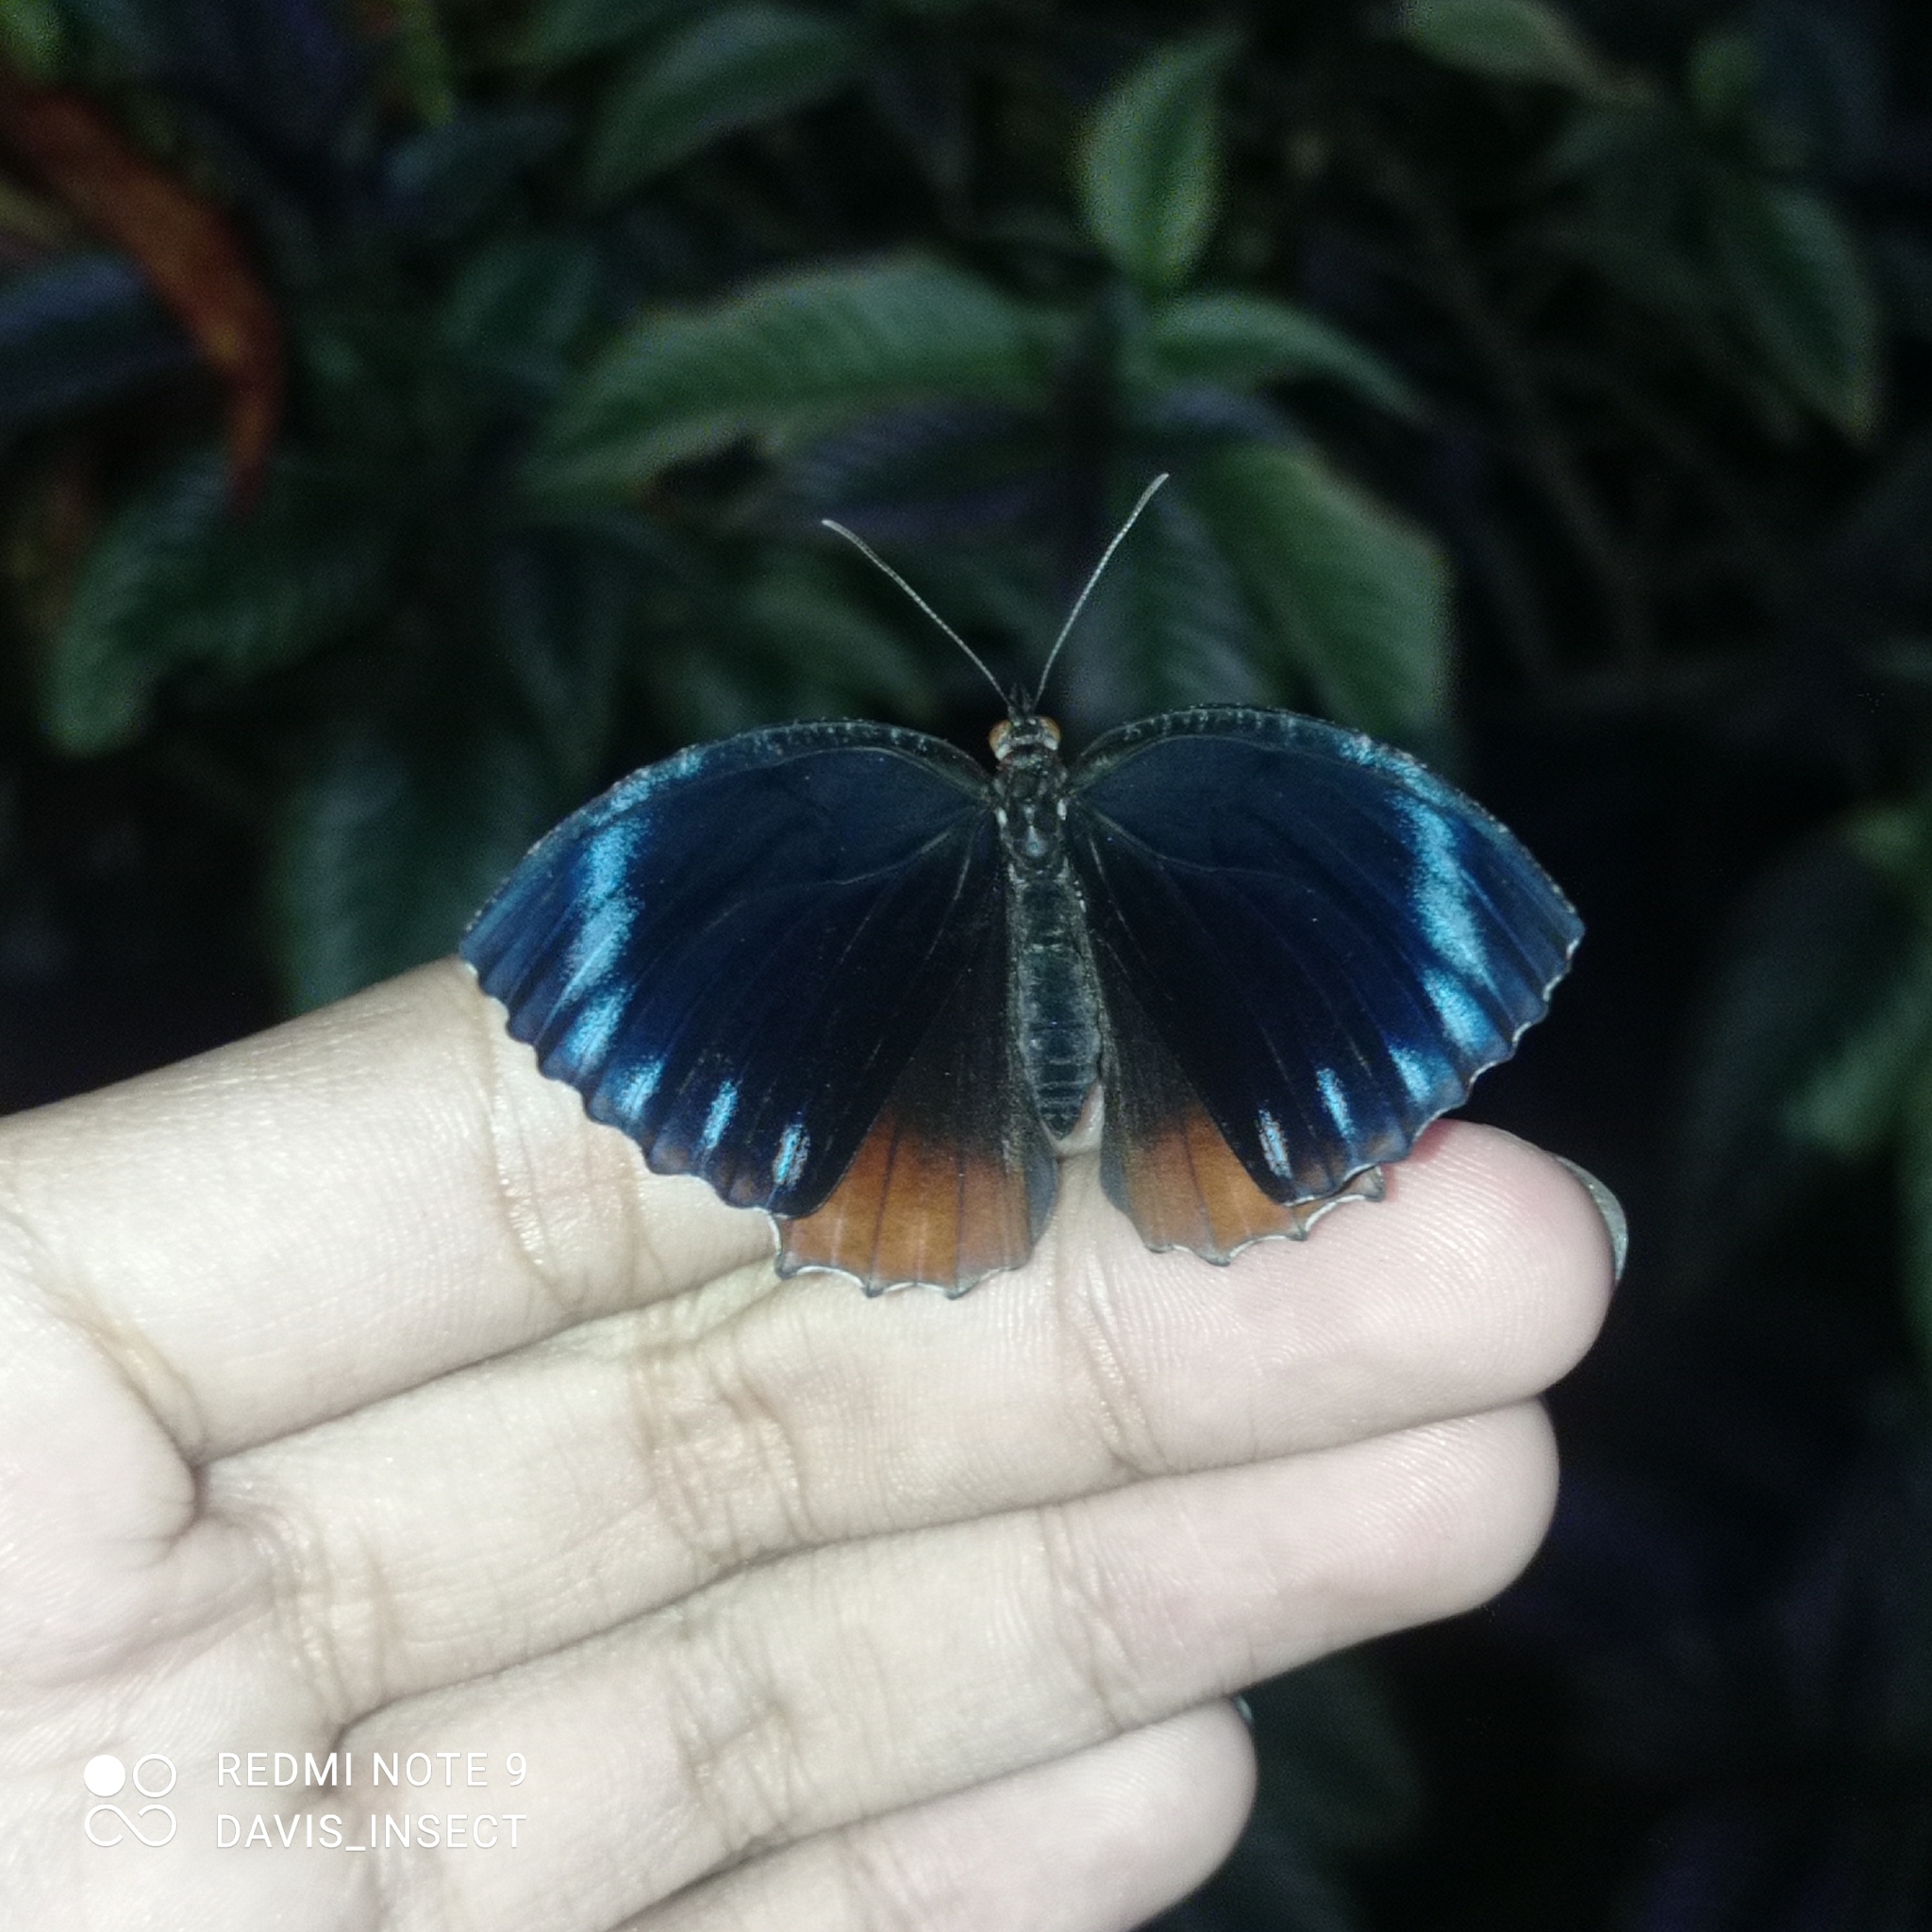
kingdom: Animalia
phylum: Arthropoda
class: Insecta
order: Lepidoptera
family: Nymphalidae
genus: Elymnias
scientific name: Elymnias hypermnestra
